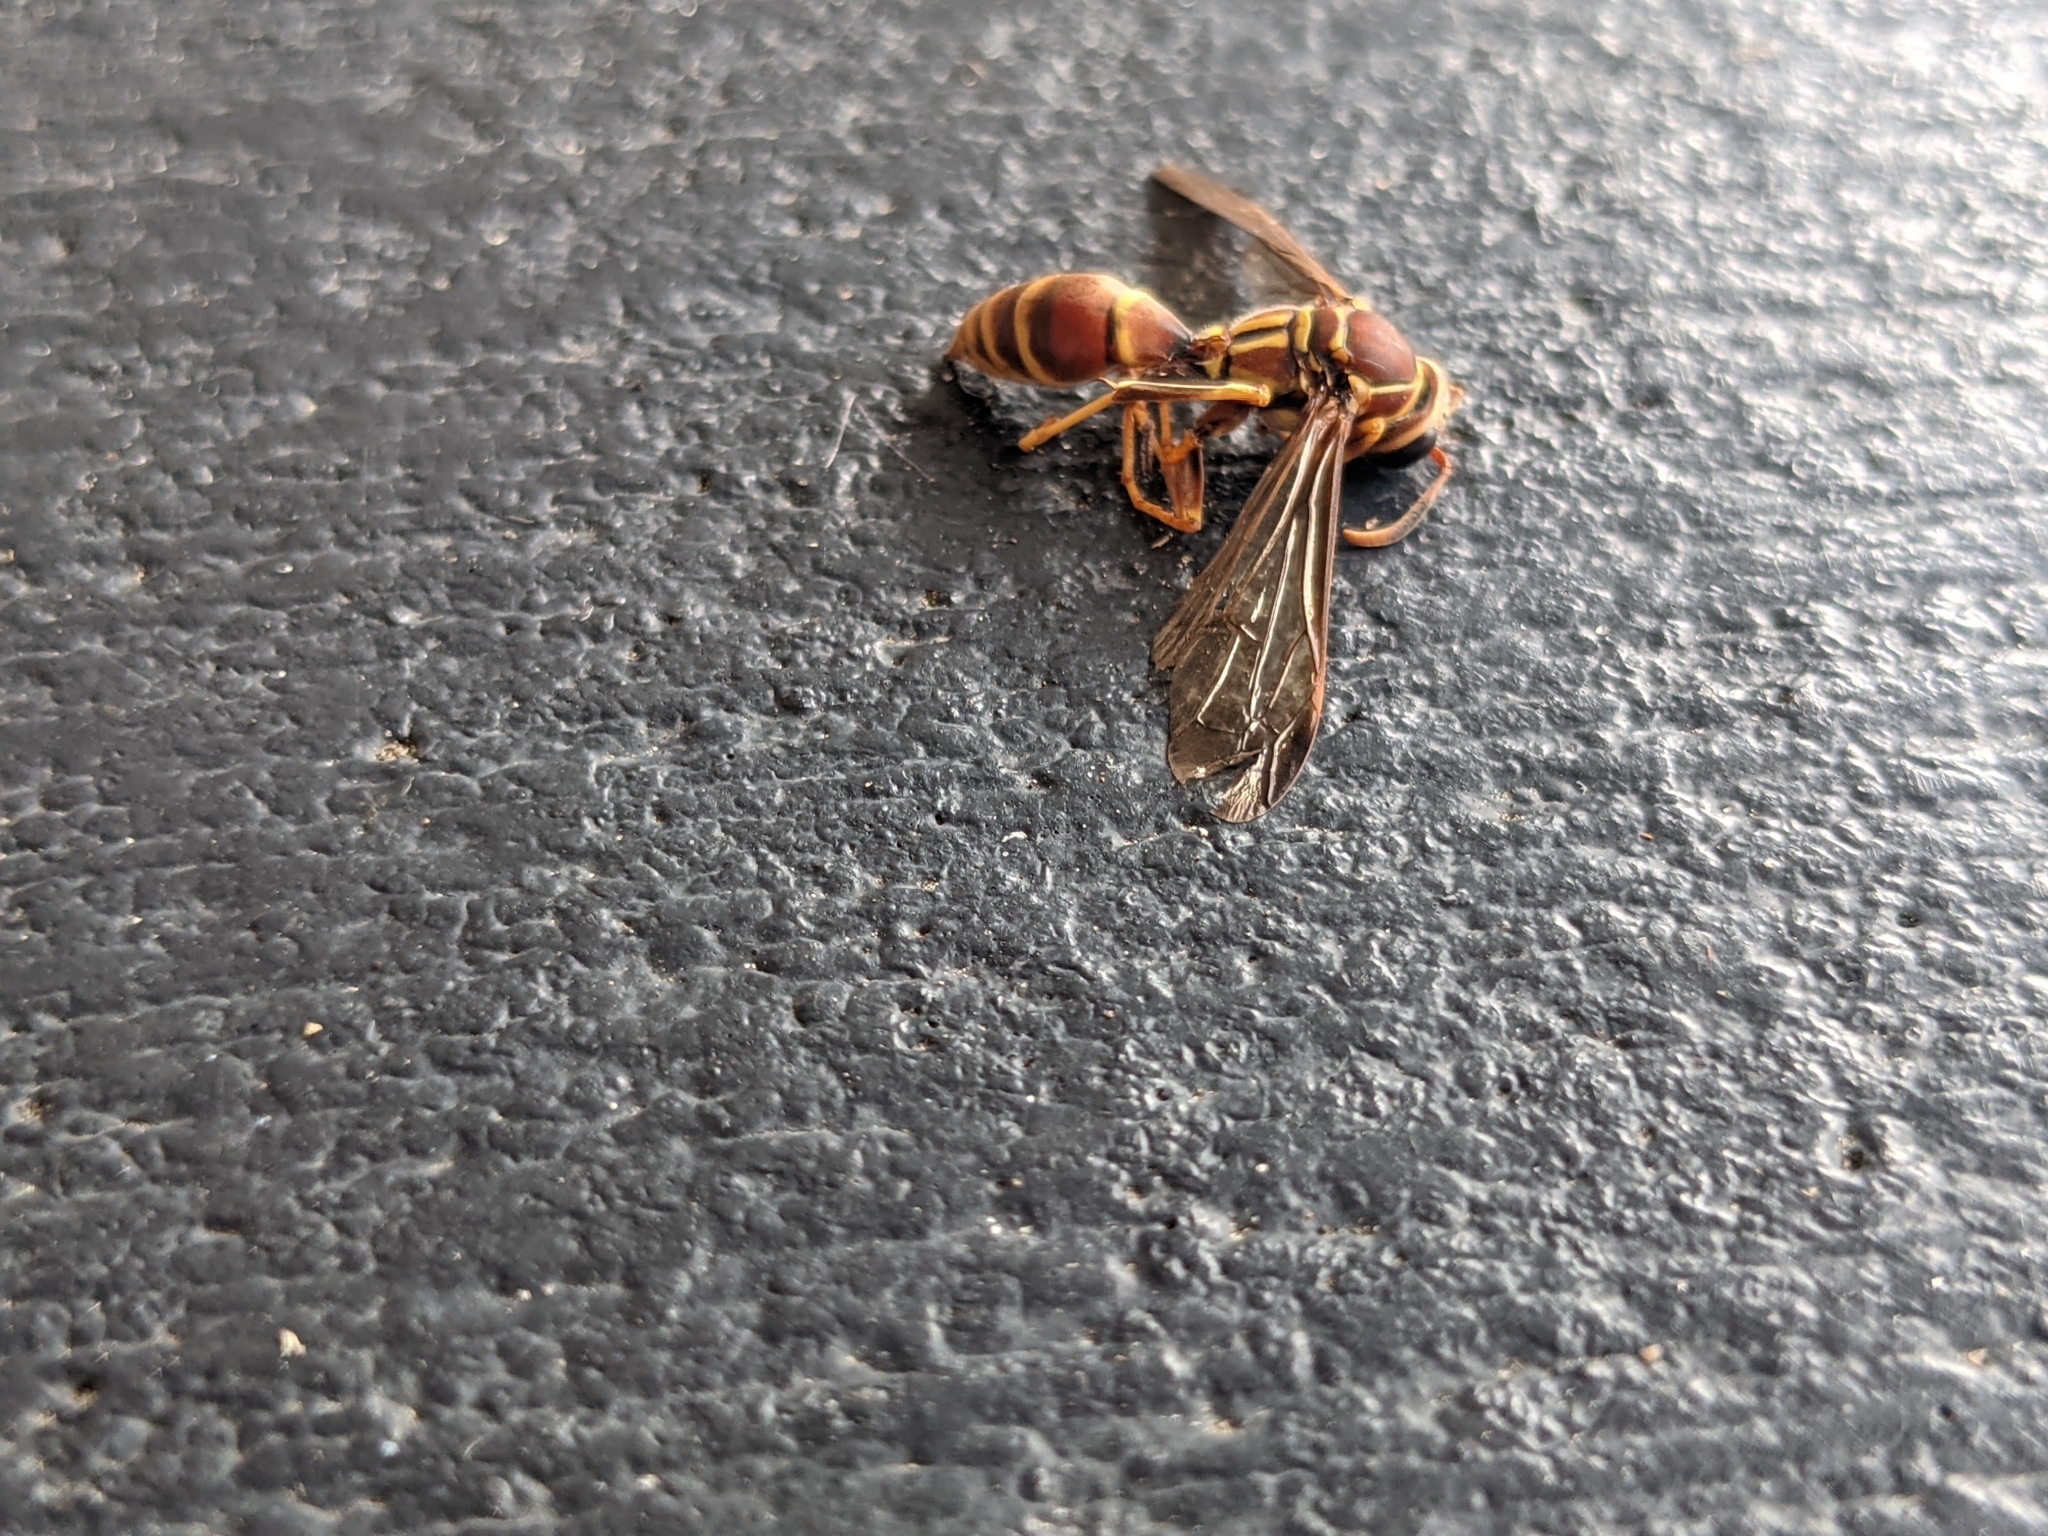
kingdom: Animalia
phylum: Arthropoda
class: Insecta
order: Hymenoptera
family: Eumenidae
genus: Polistes
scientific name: Polistes exclamans
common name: Paper wasp
